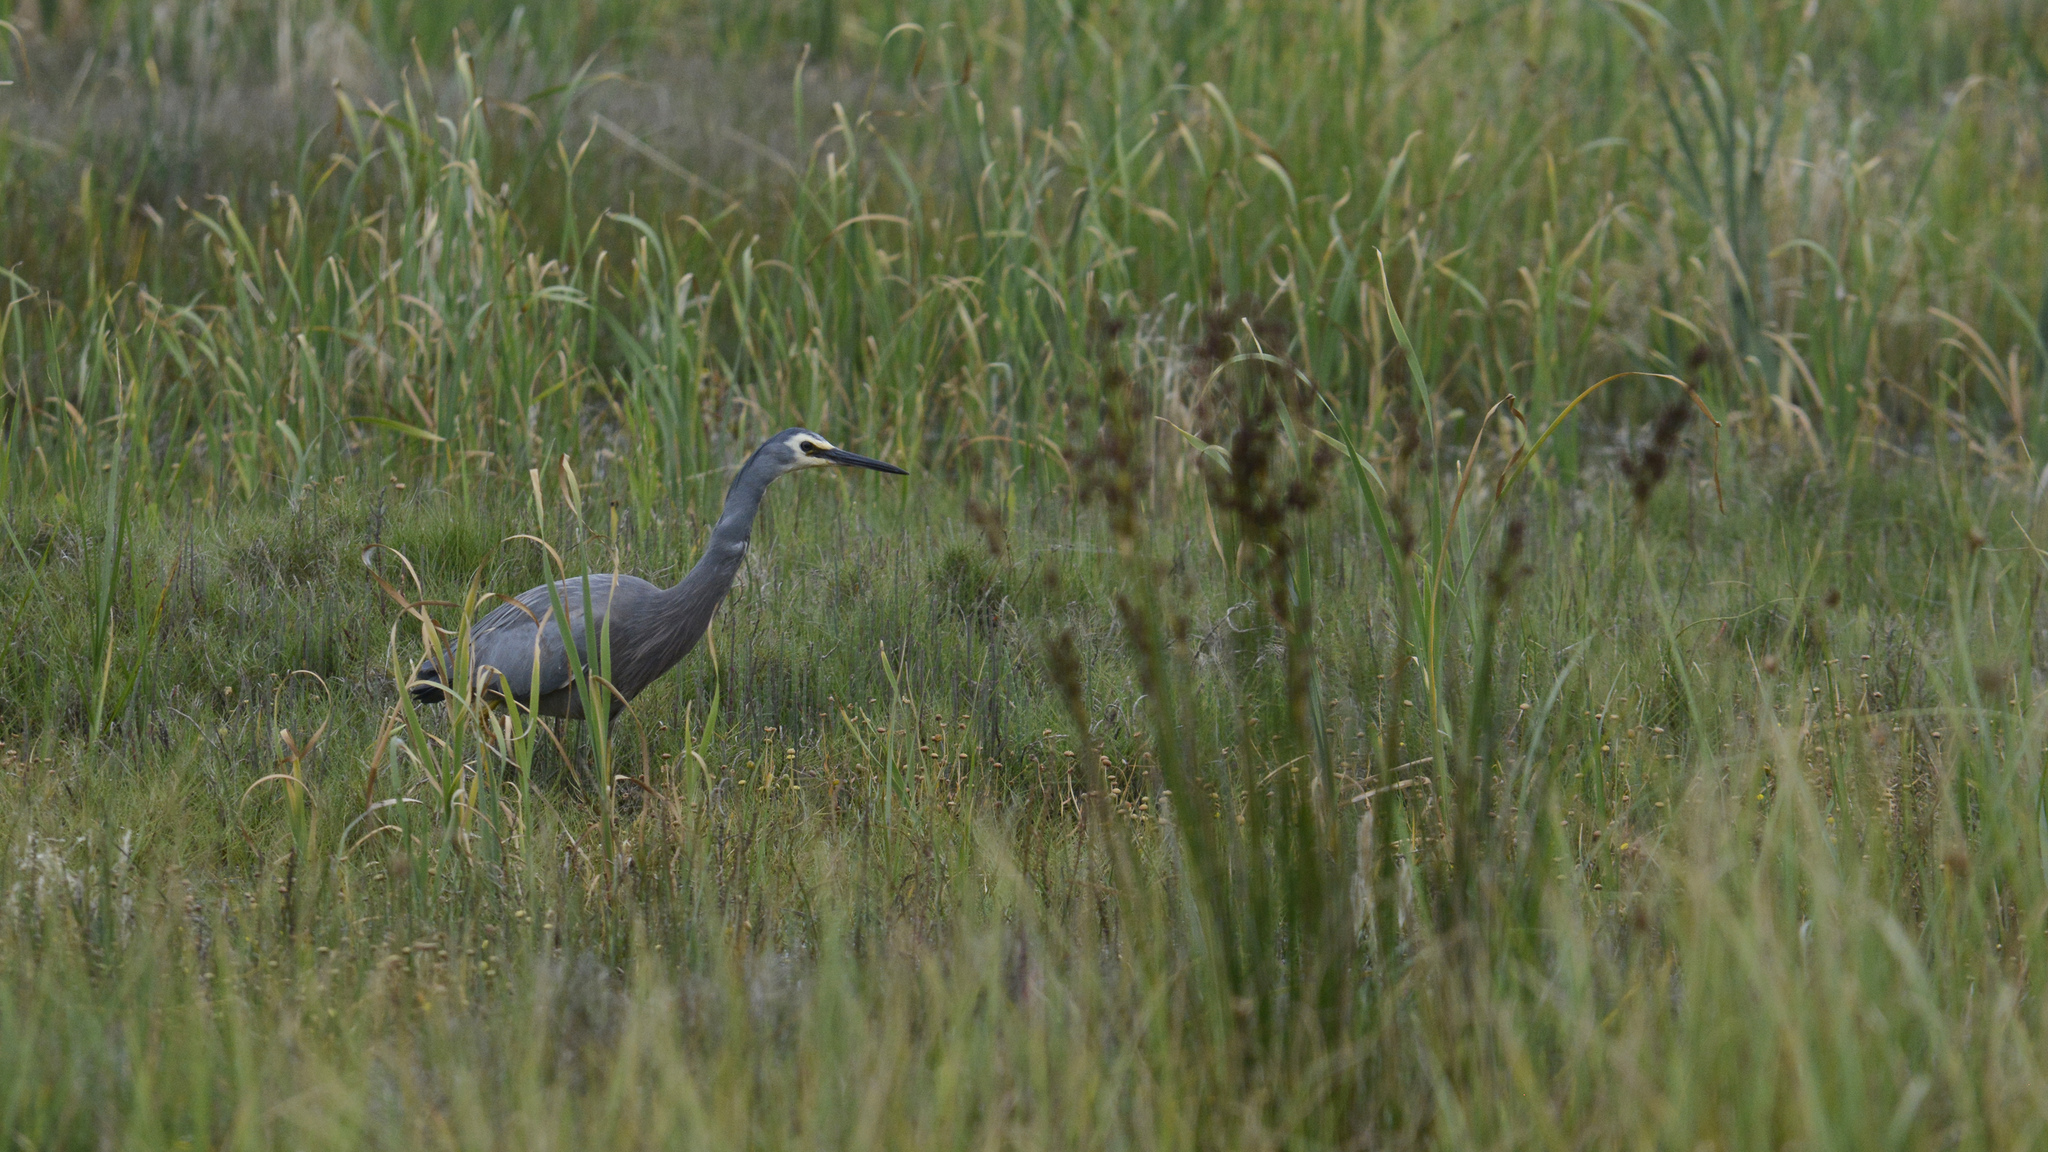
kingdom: Animalia
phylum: Chordata
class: Aves
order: Pelecaniformes
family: Ardeidae
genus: Egretta
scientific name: Egretta novaehollandiae
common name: White-faced heron
